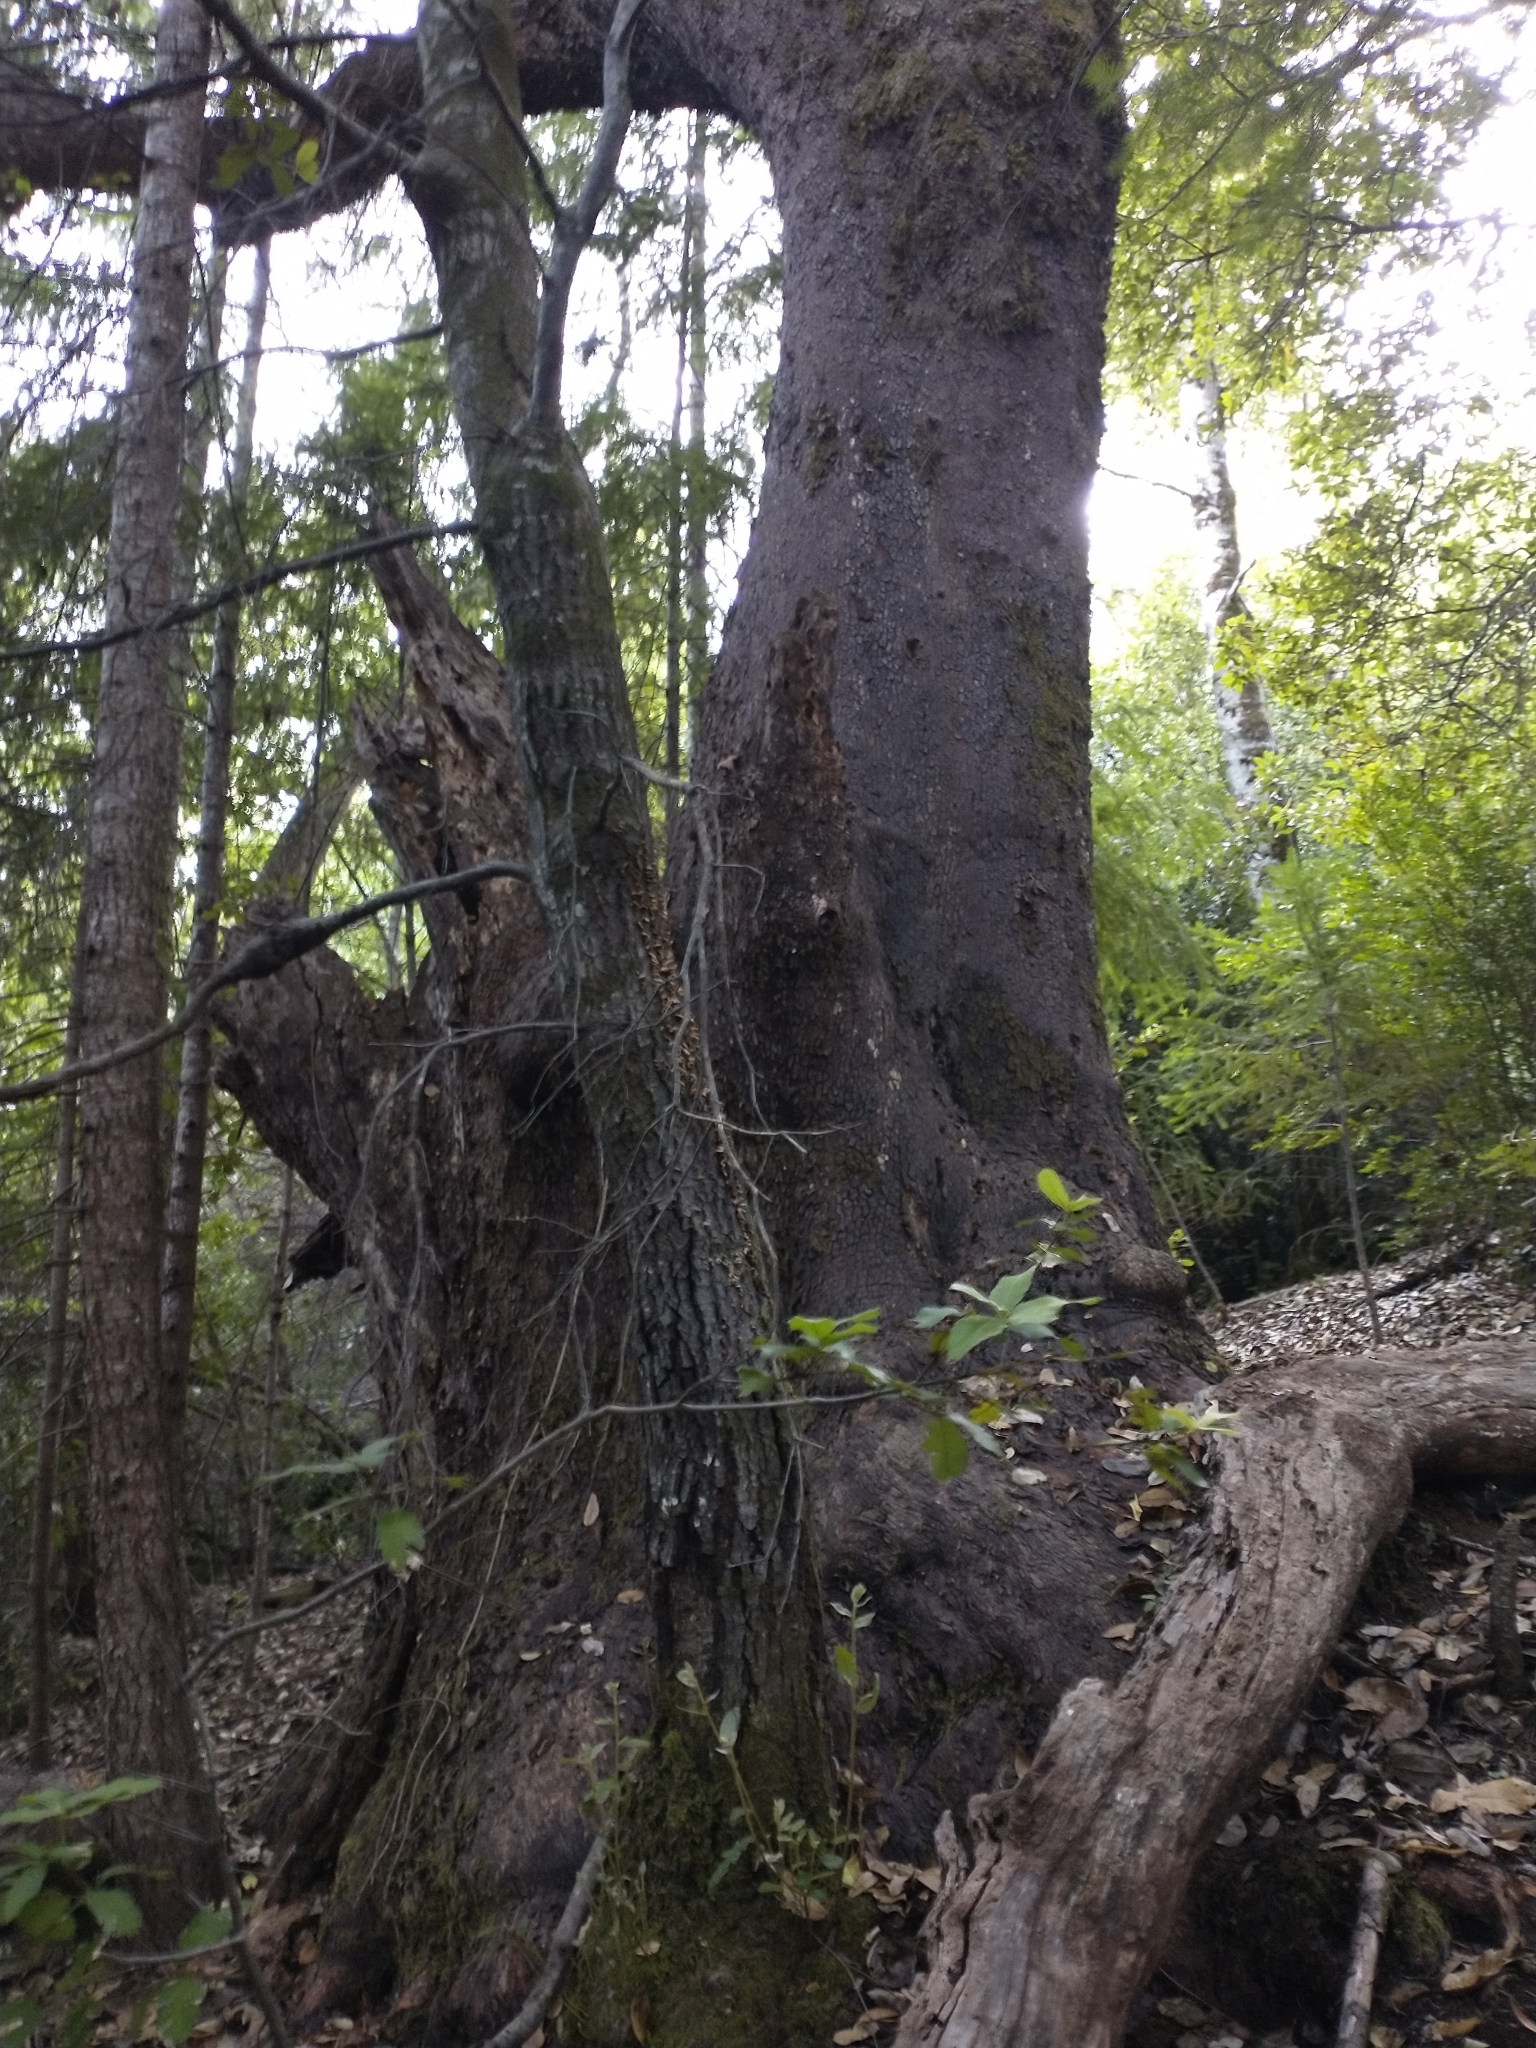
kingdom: Plantae
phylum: Tracheophyta
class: Magnoliopsida
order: Ericales
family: Ericaceae
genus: Arbutus
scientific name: Arbutus menziesii
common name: Pacific madrone
